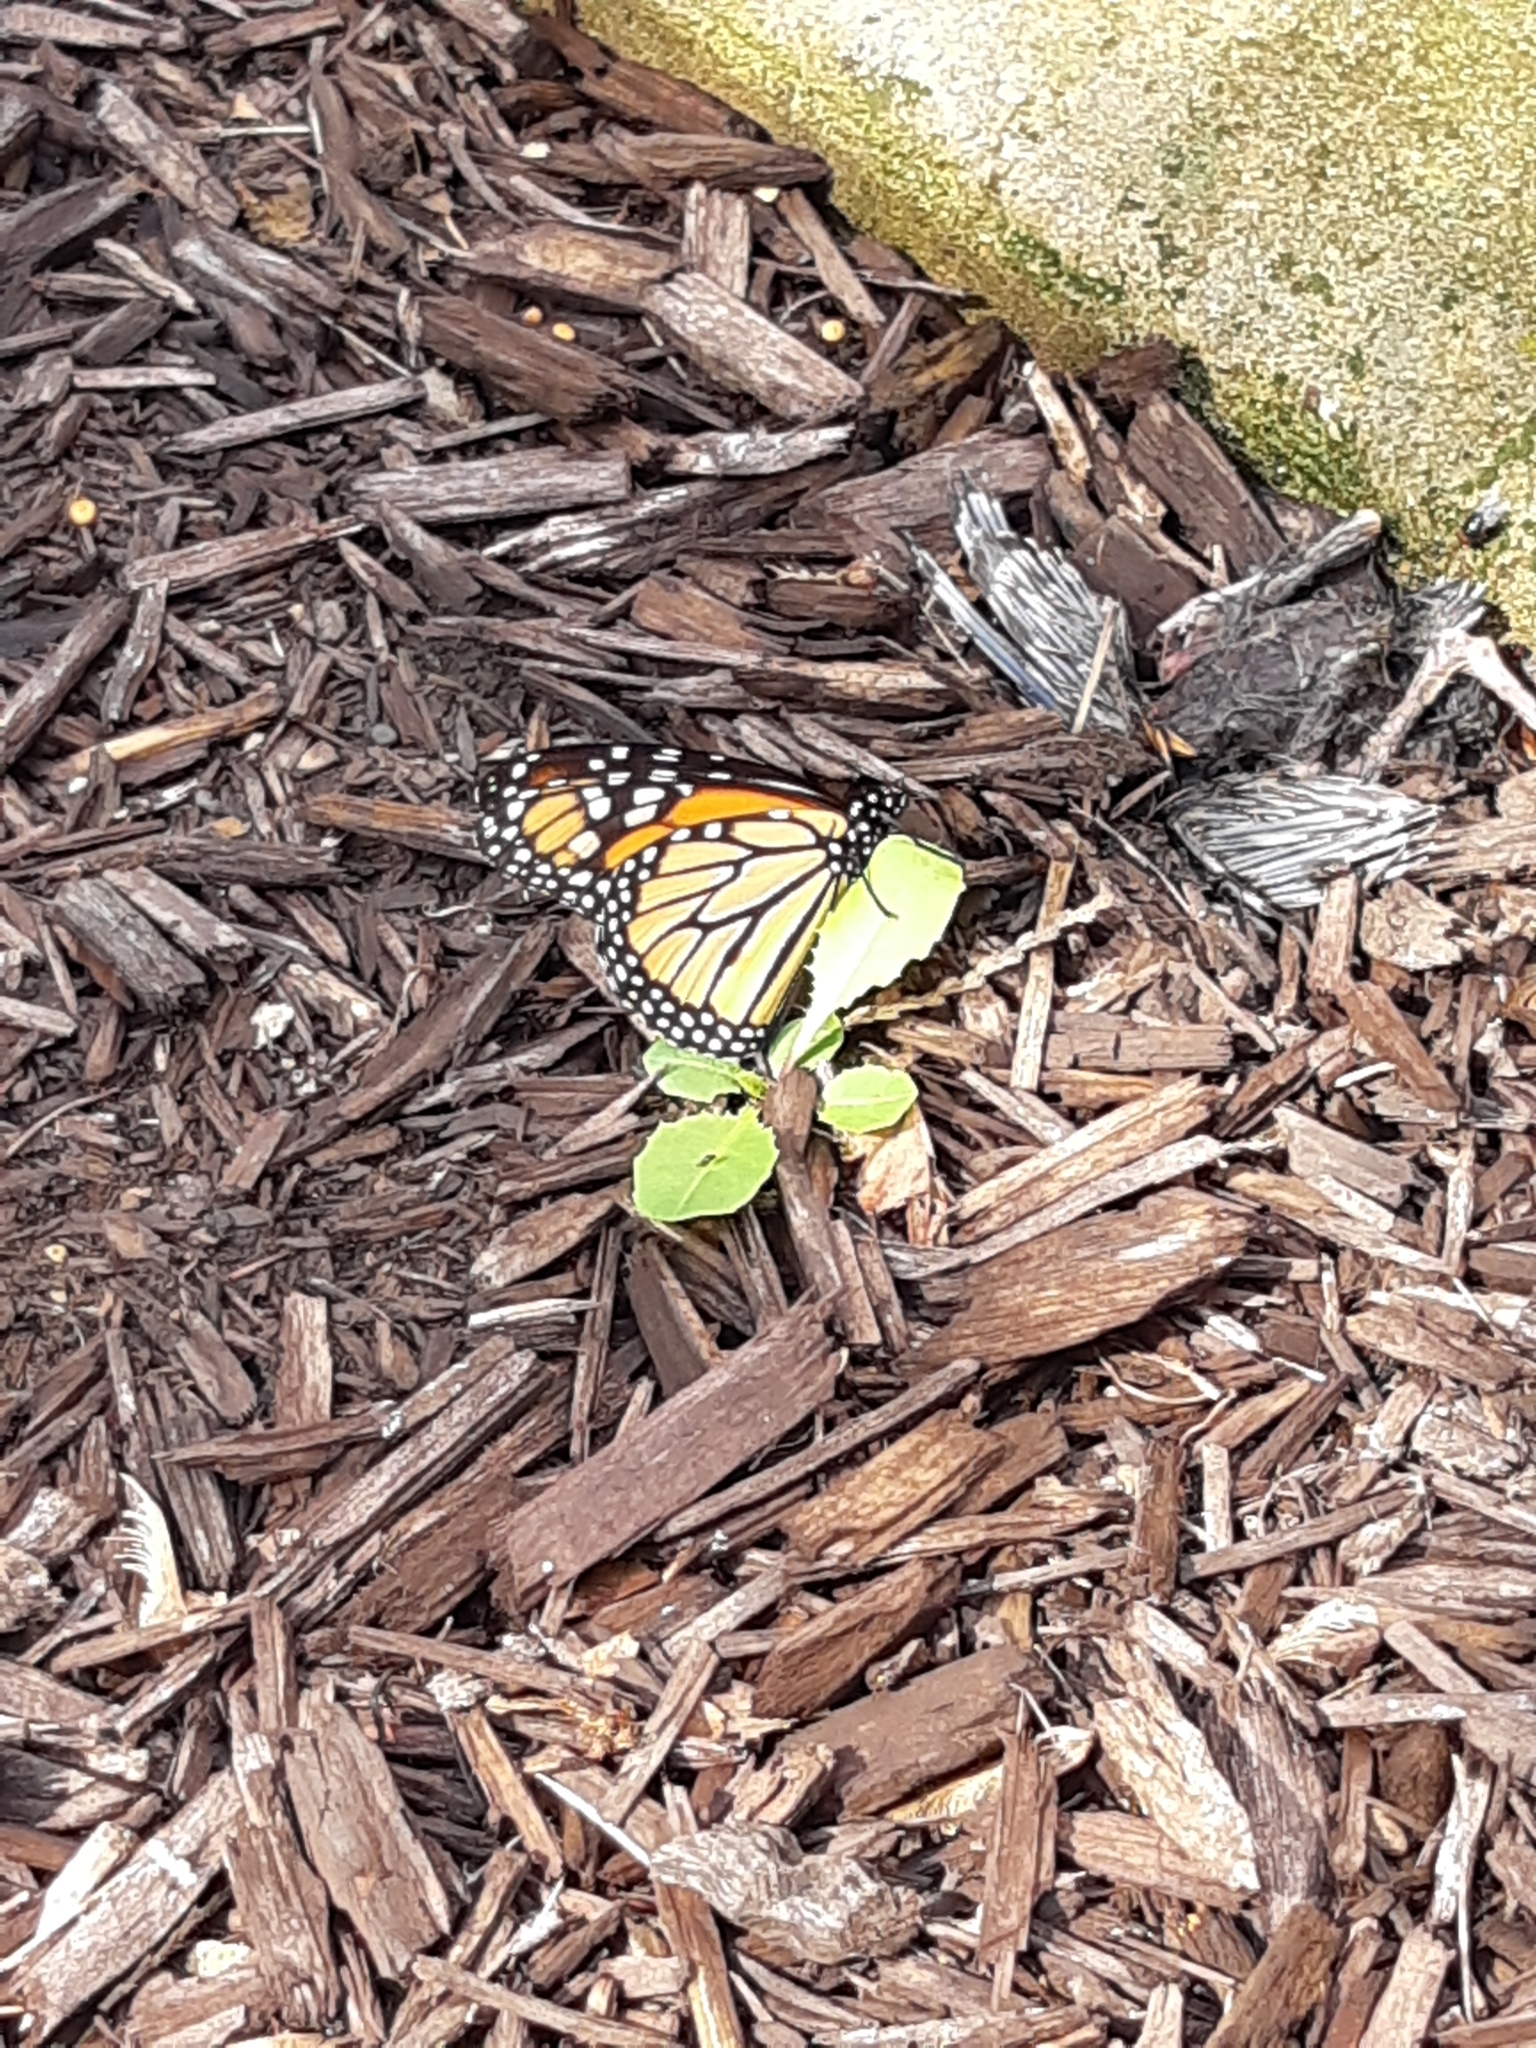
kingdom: Animalia
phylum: Arthropoda
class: Insecta
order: Lepidoptera
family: Nymphalidae
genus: Danaus
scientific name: Danaus plexippus
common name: Monarch
